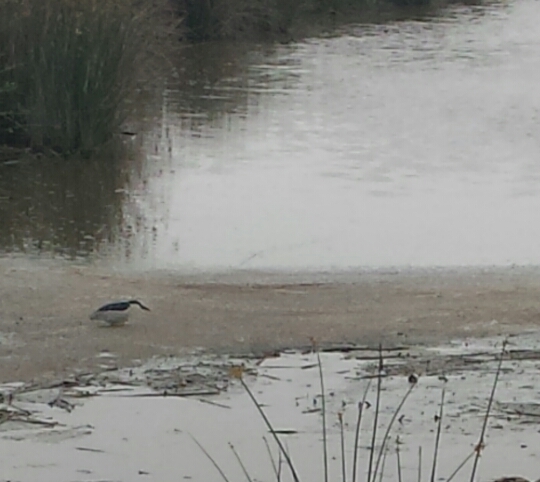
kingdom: Animalia
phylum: Chordata
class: Aves
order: Pelecaniformes
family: Ardeidae
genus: Nycticorax
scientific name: Nycticorax nycticorax
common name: Black-crowned night heron
